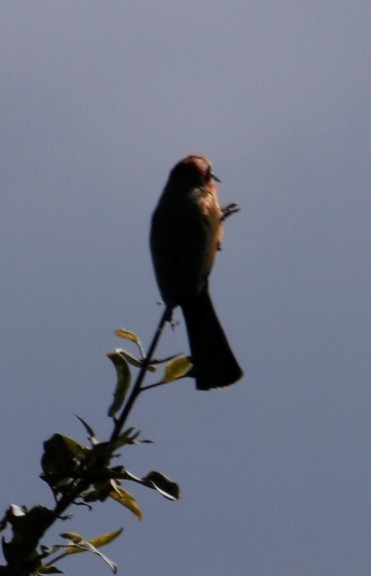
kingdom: Animalia
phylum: Chordata
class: Aves
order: Coraciiformes
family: Meropidae
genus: Merops
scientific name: Merops bullockoides
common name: White-fronted bee-eater
